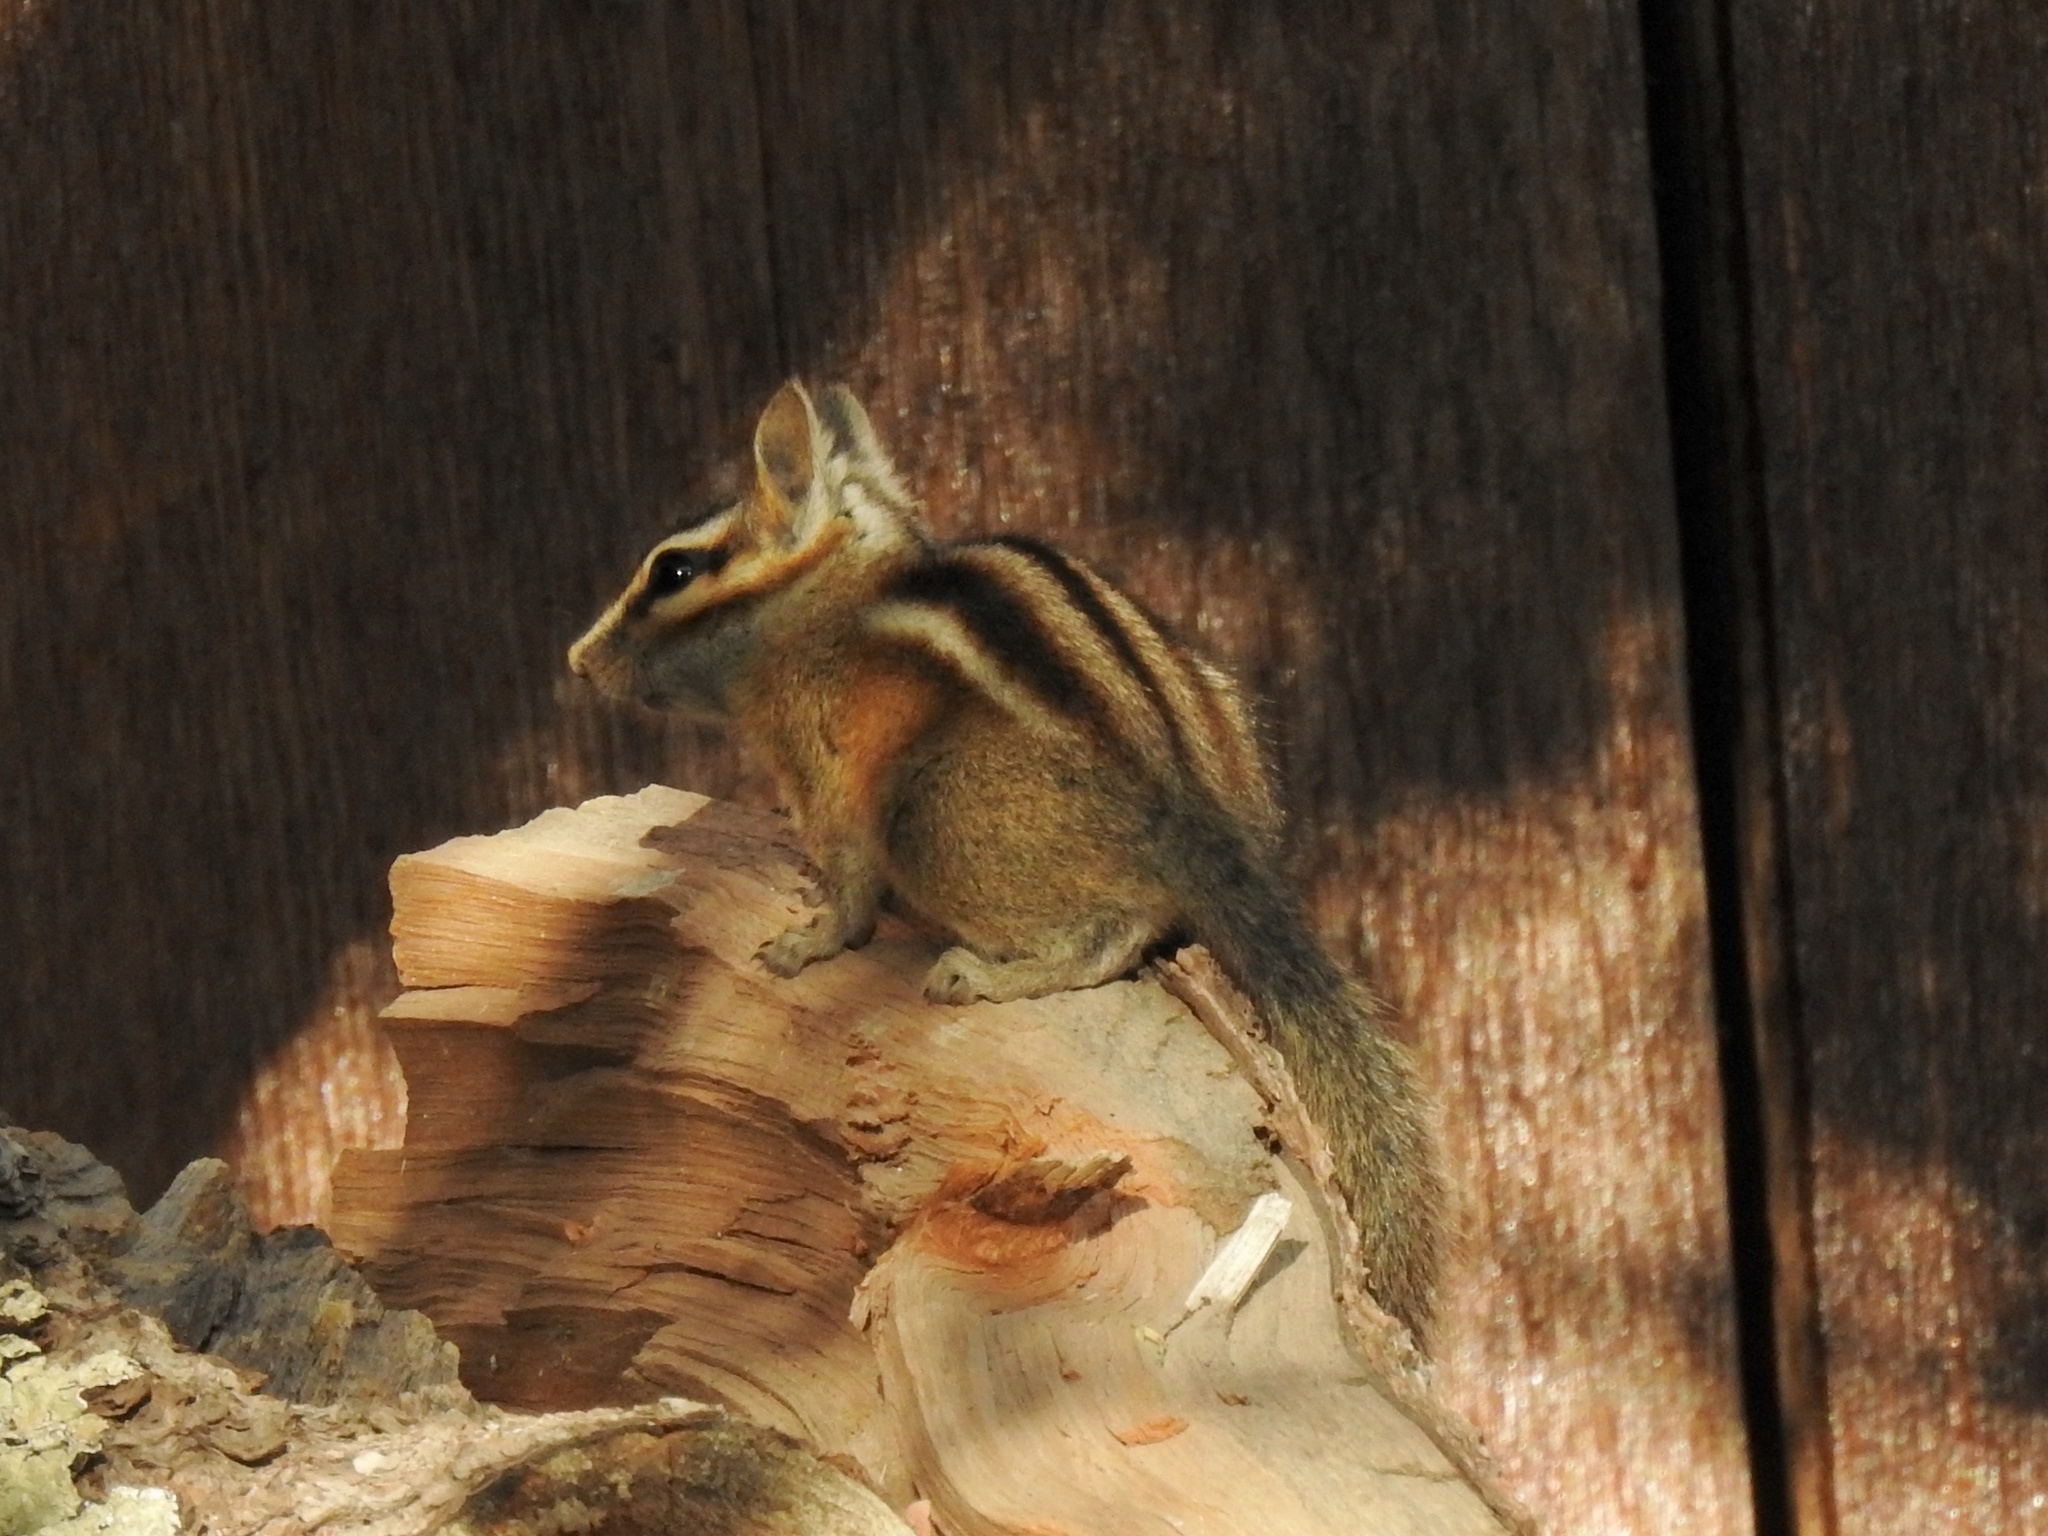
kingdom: Animalia
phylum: Chordata
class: Mammalia
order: Rodentia
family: Sciuridae
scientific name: Sciuridae
